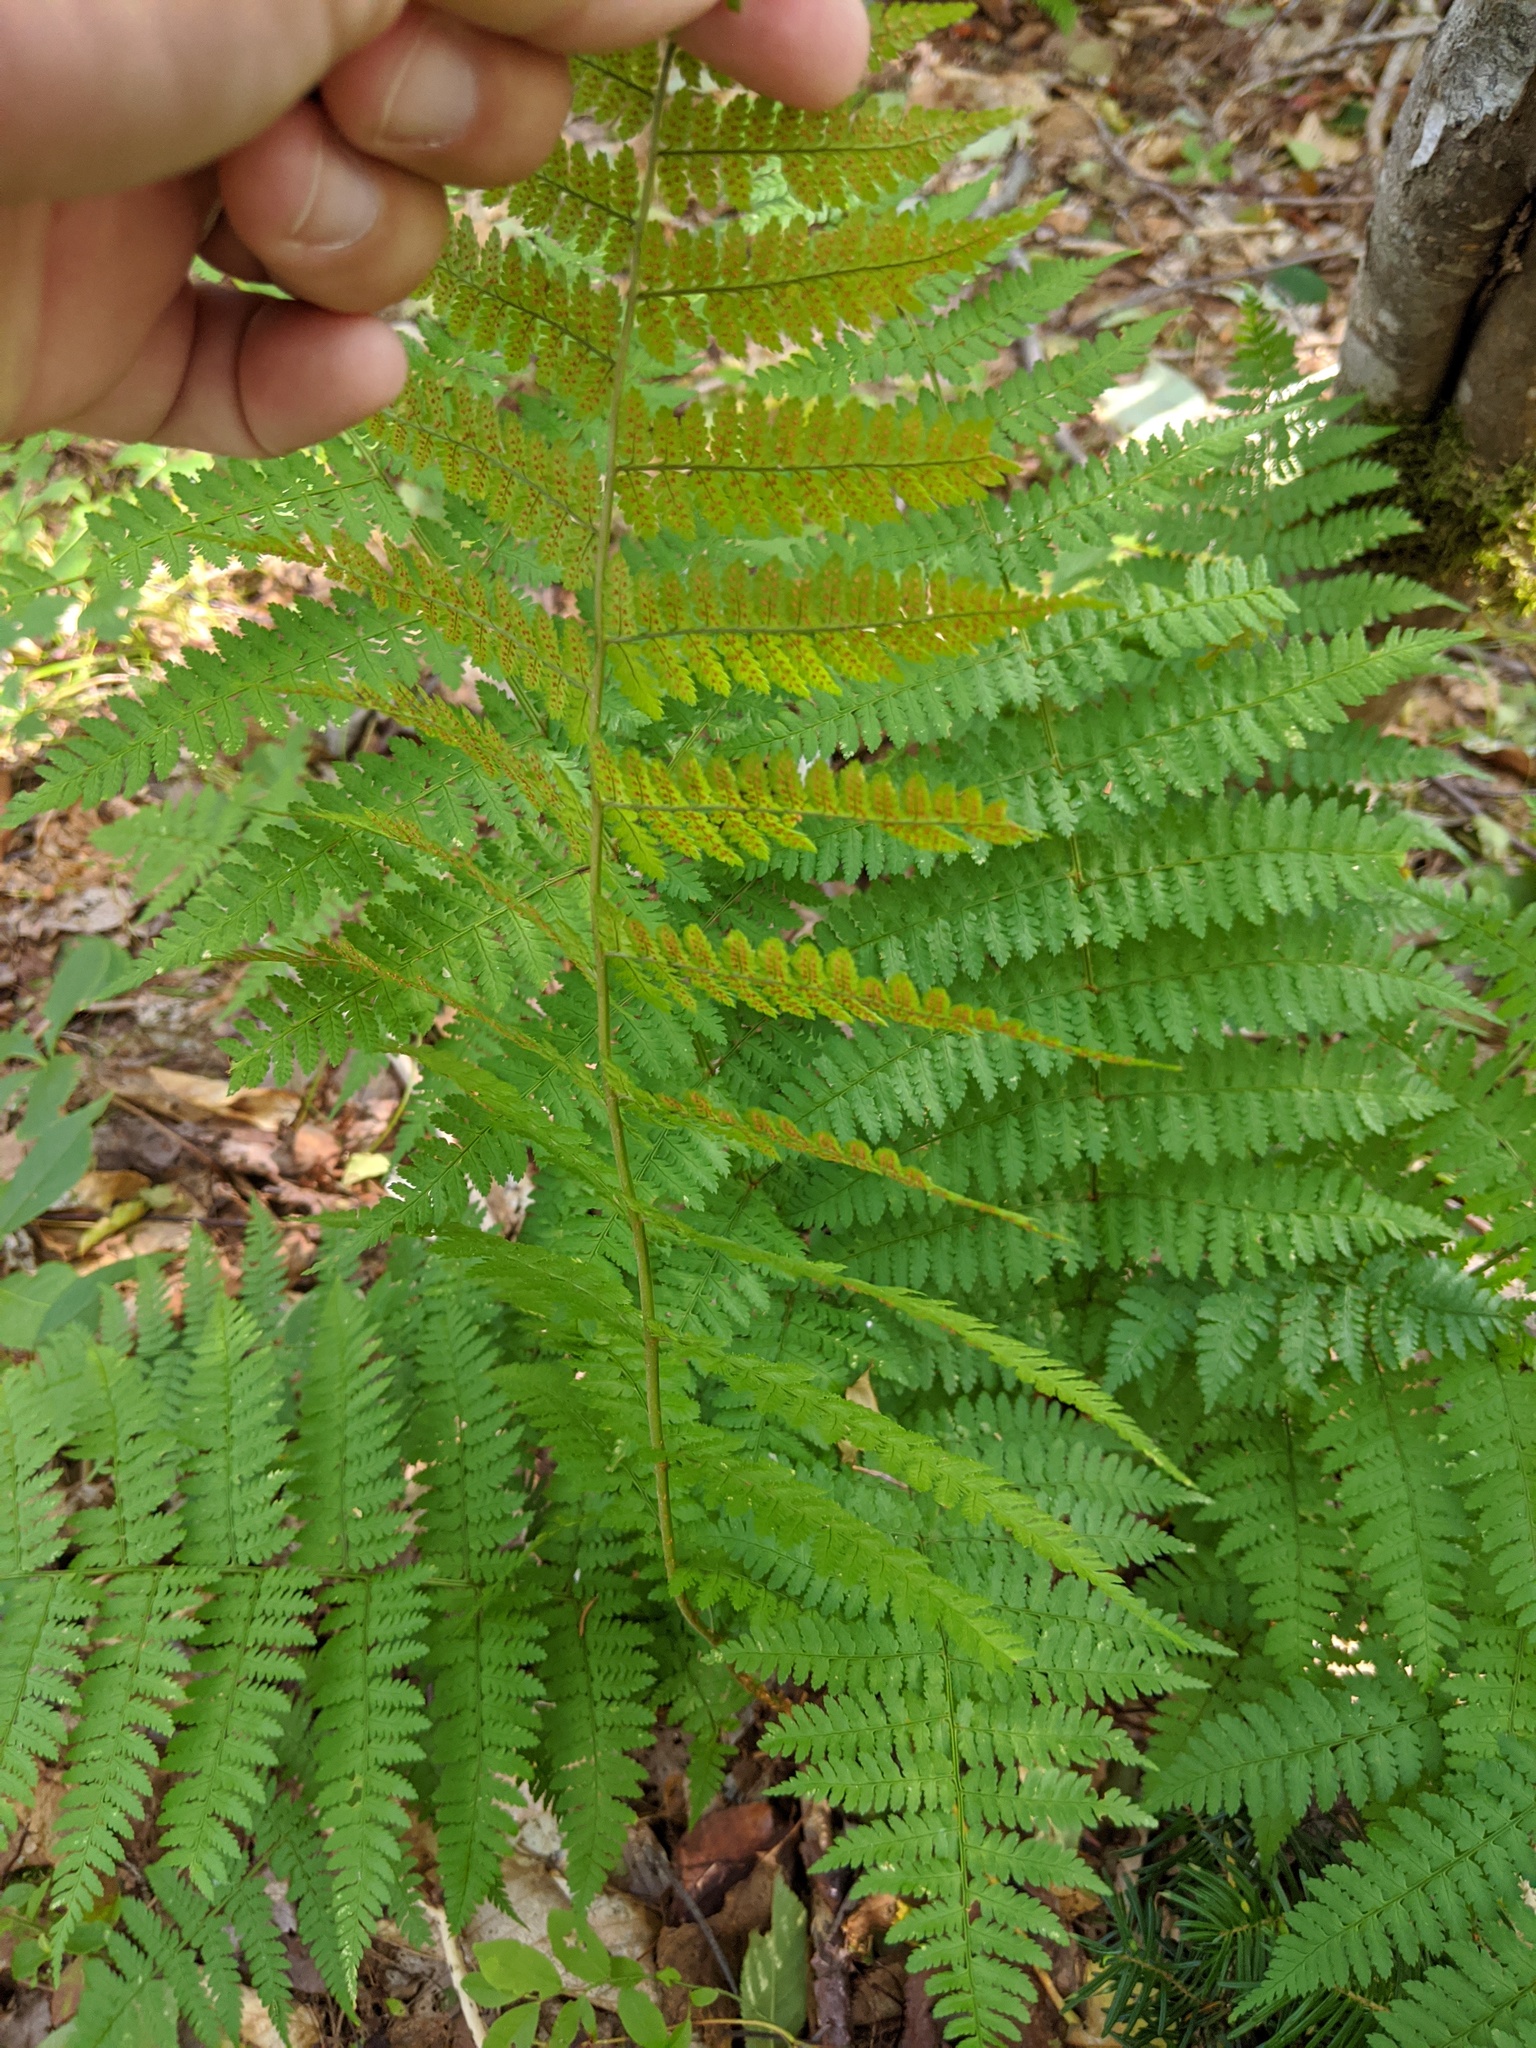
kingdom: Plantae
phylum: Tracheophyta
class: Polypodiopsida
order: Polypodiales
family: Dryopteridaceae
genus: Dryopteris
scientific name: Dryopteris intermedia
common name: Evergreen wood fern
